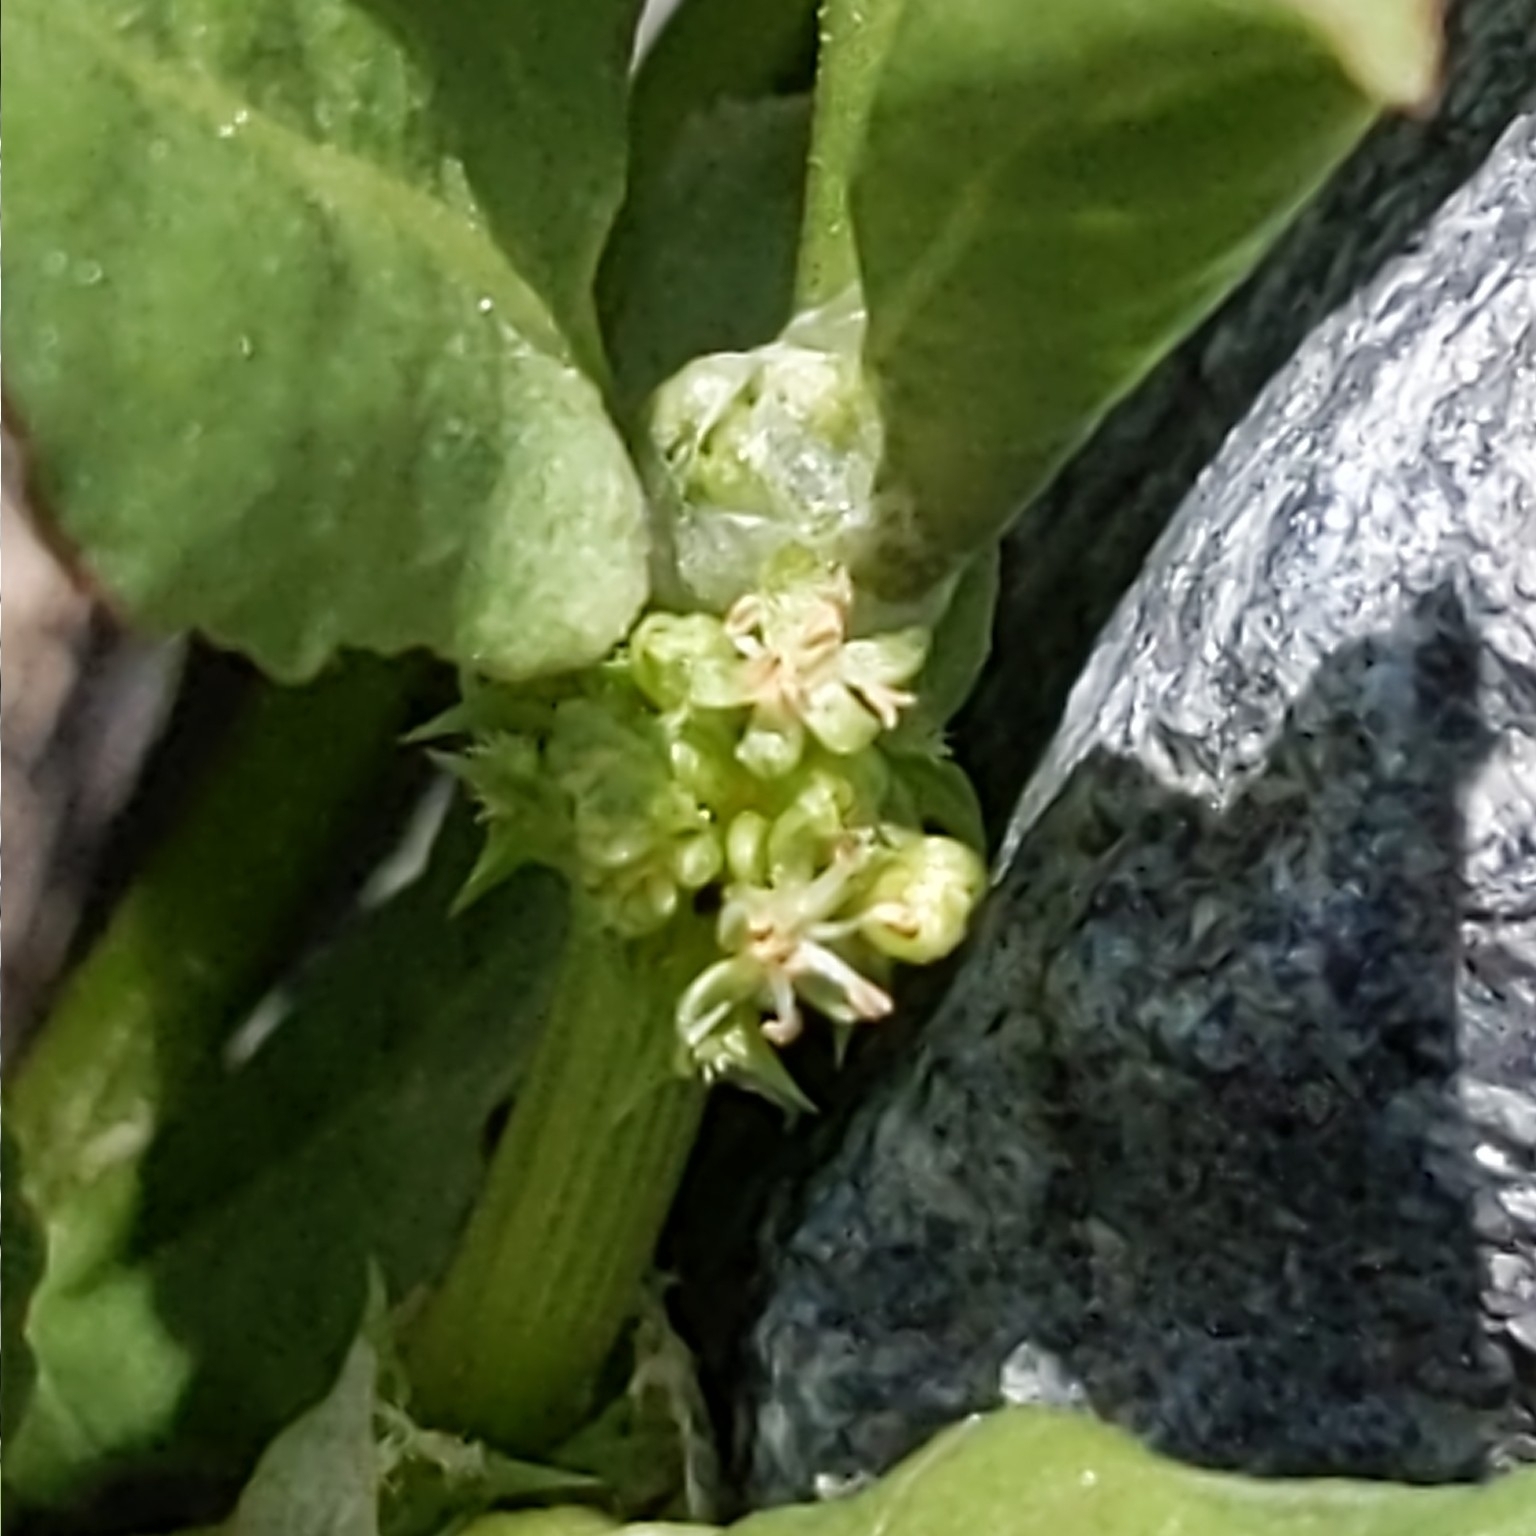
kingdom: Plantae
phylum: Tracheophyta
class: Magnoliopsida
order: Caryophyllales
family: Polygonaceae
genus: Rumex
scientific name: Rumex spinosus
